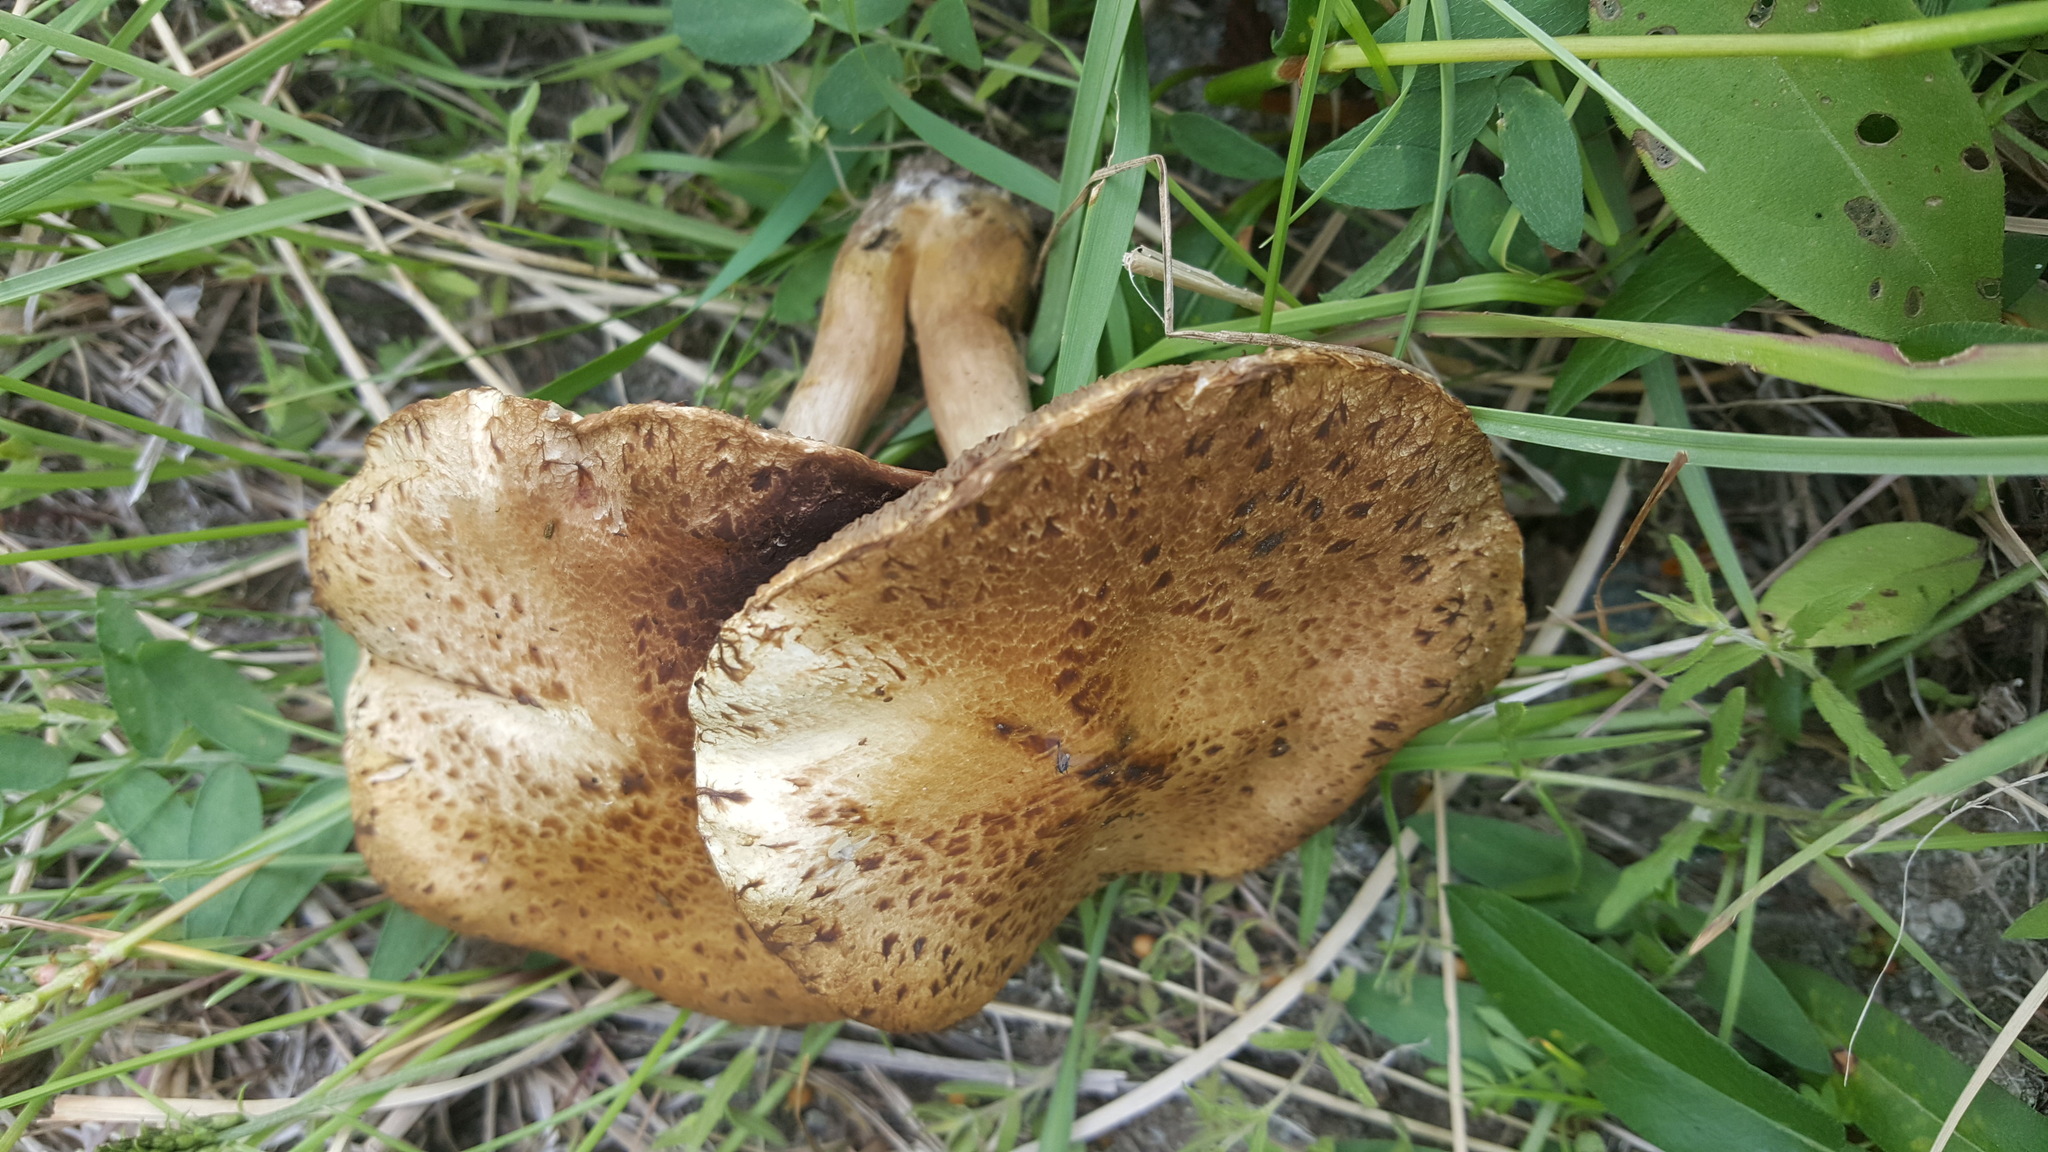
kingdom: Fungi
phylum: Basidiomycota
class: Agaricomycetes
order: Boletales
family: Suillaceae
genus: Suillus
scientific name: Suillus viscidus
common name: Sticky bolete
